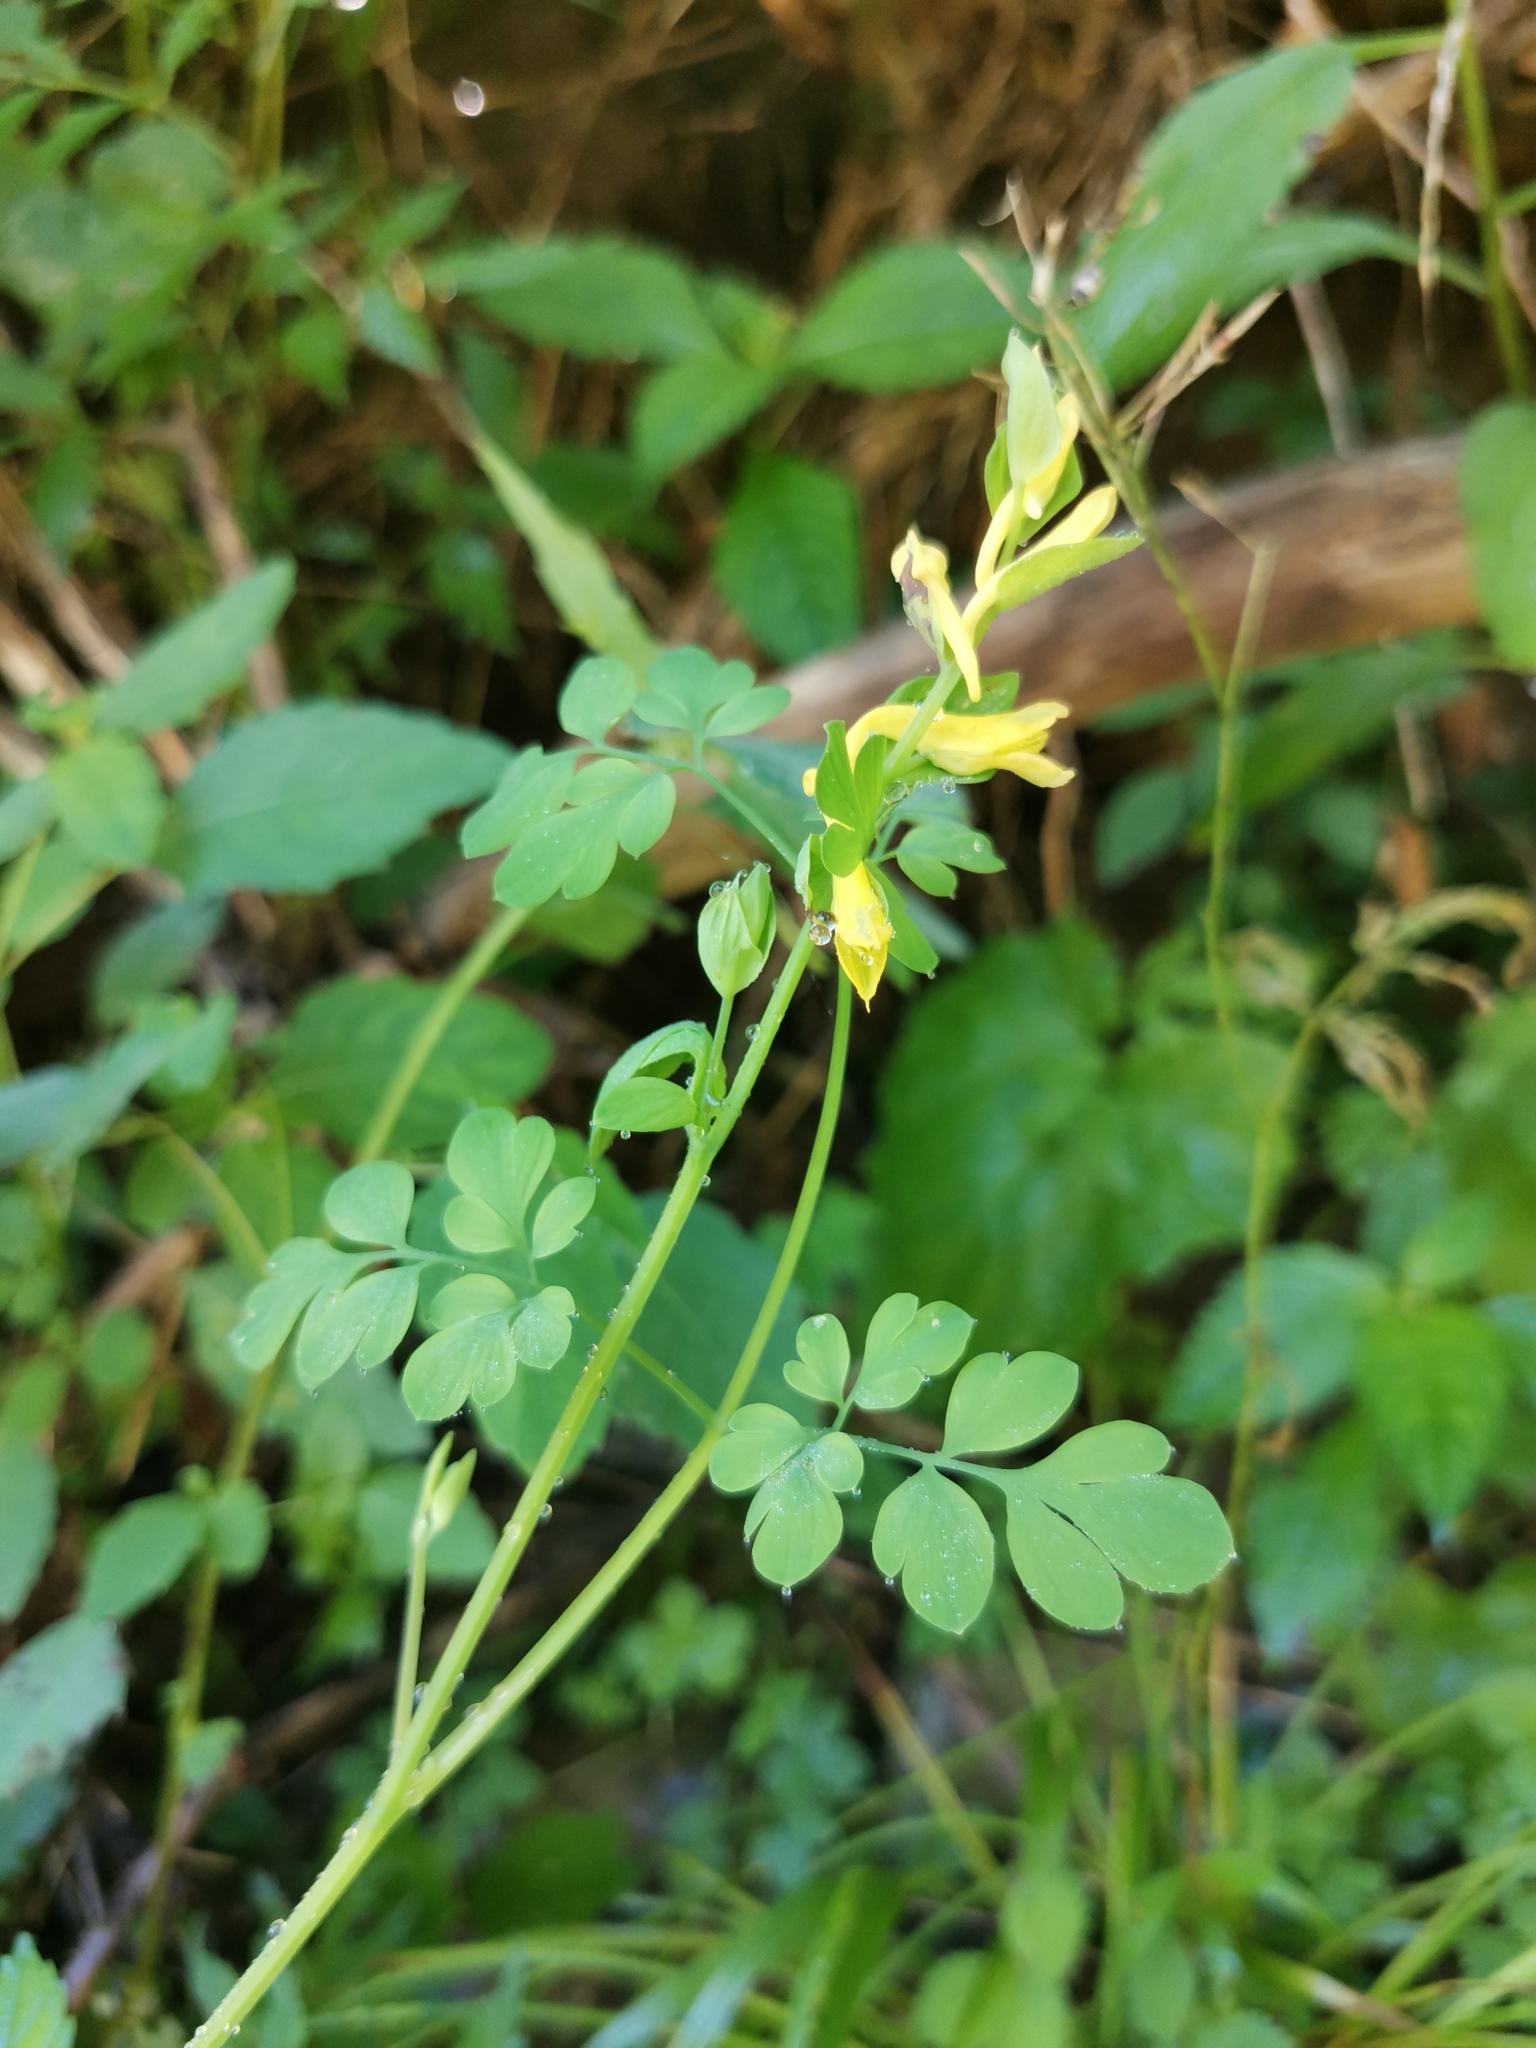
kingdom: Plantae
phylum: Tracheophyta
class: Magnoliopsida
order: Ranunculales
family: Papaveraceae
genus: Corydalis
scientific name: Corydalis ochotensis
